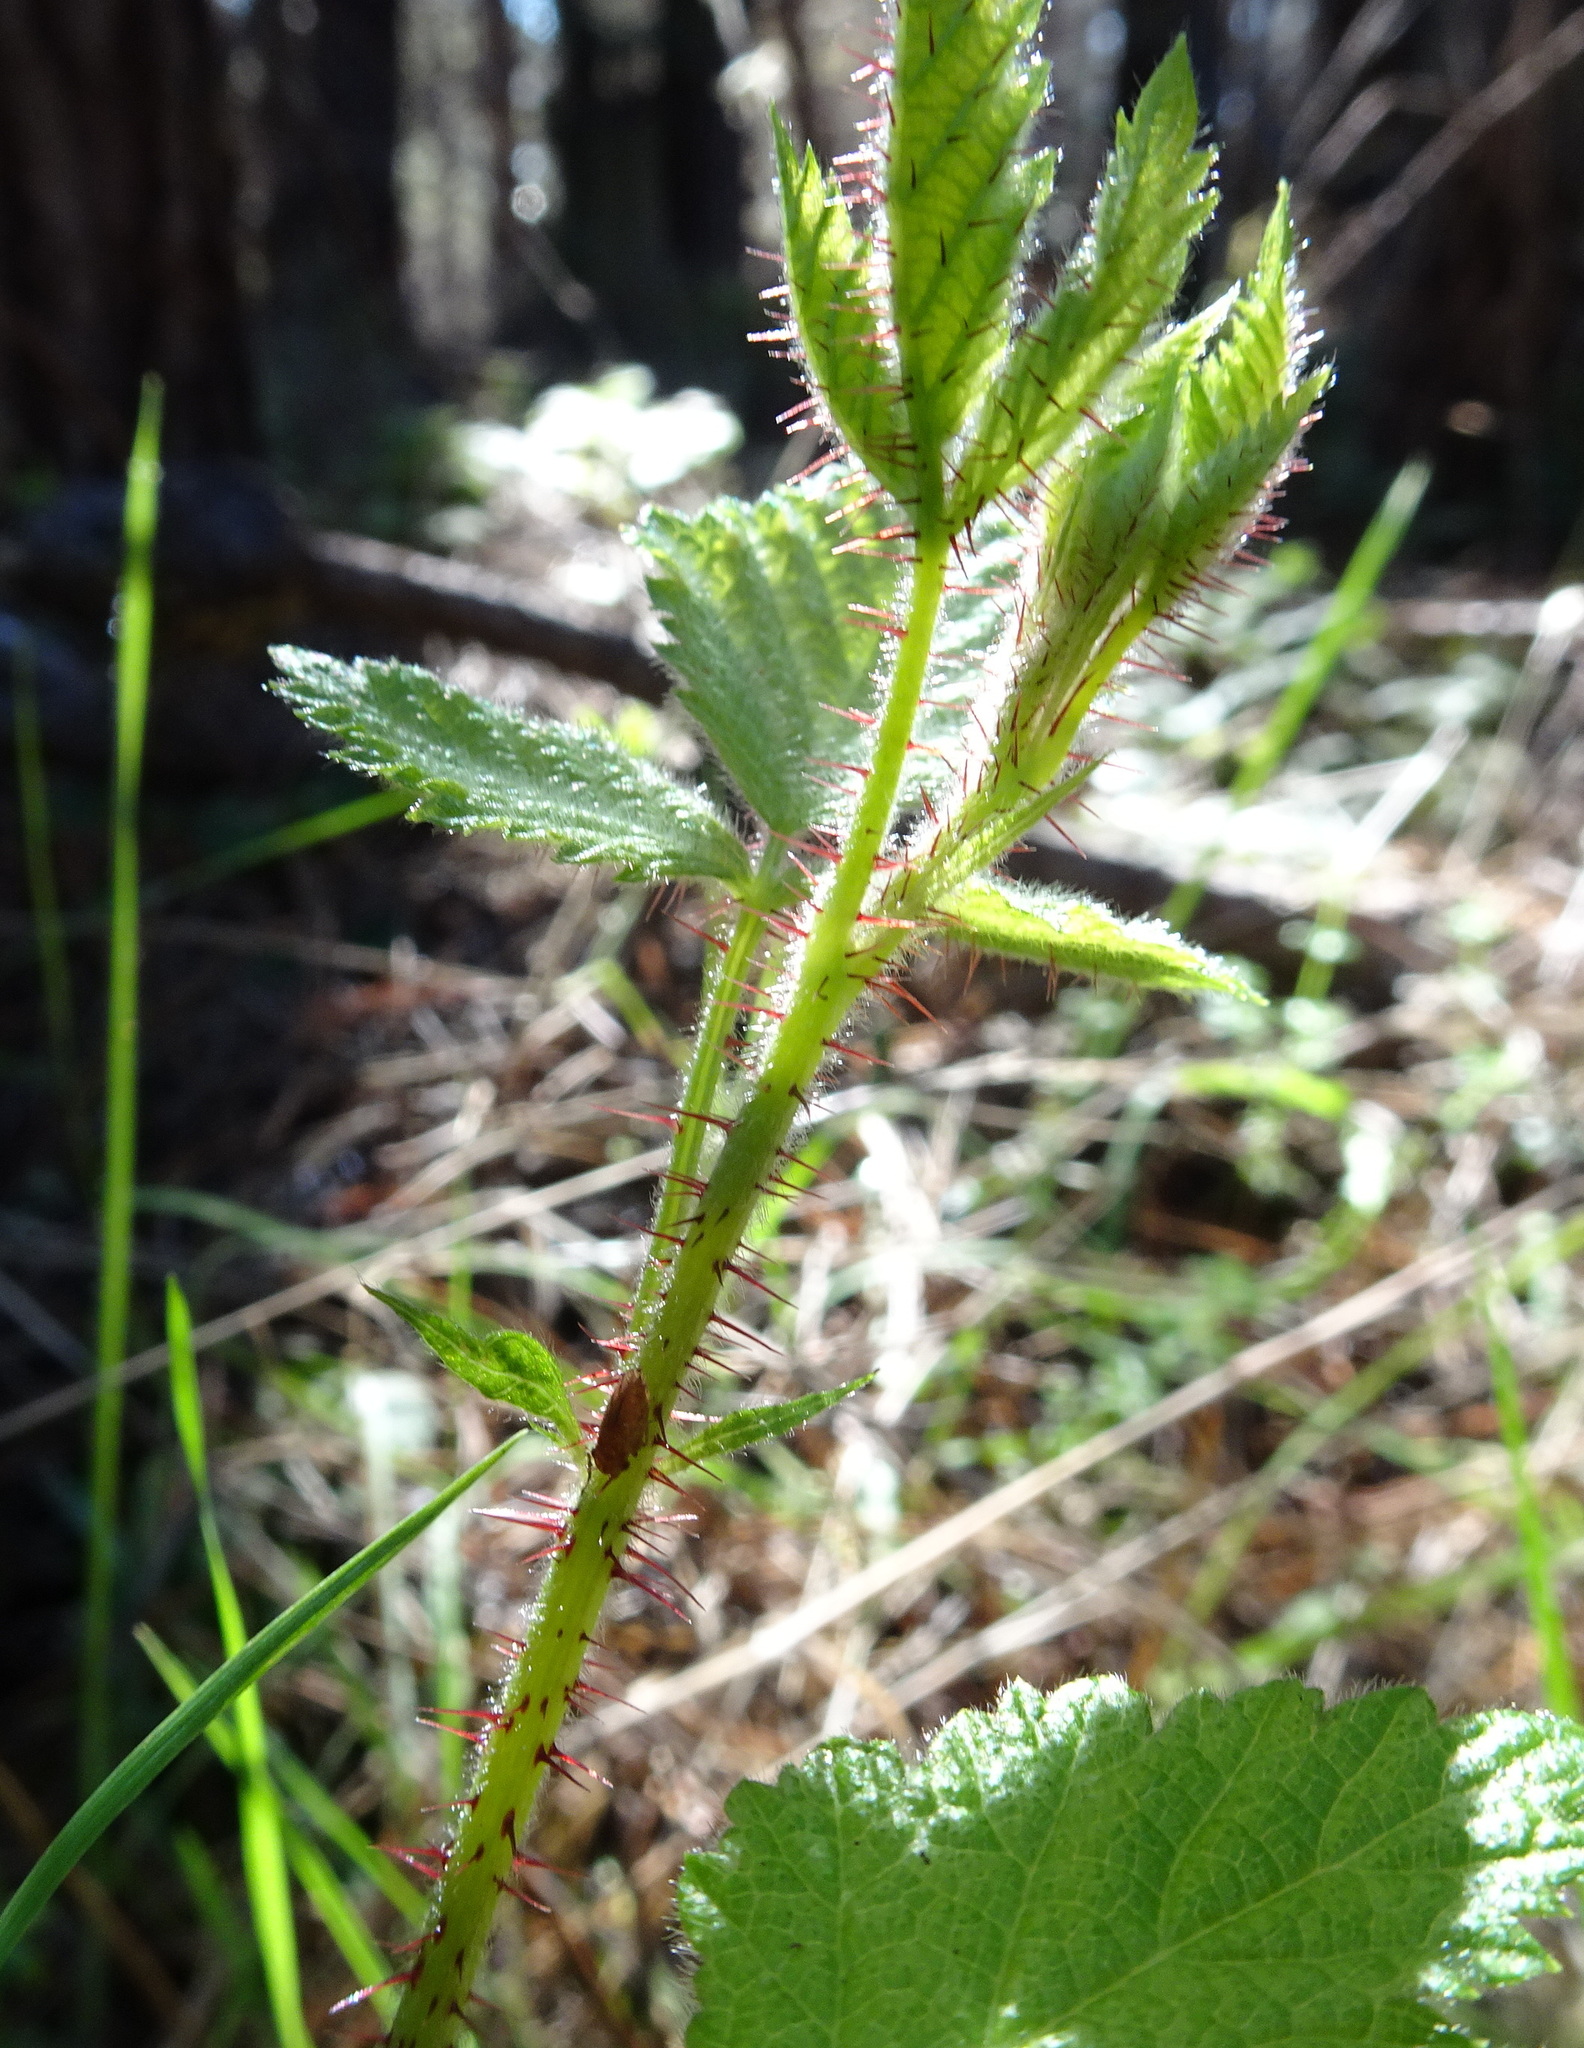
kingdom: Plantae
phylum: Tracheophyta
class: Magnoliopsida
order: Rosales
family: Rosaceae
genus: Rubus
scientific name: Rubus ursinus
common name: Pacific blackberry
